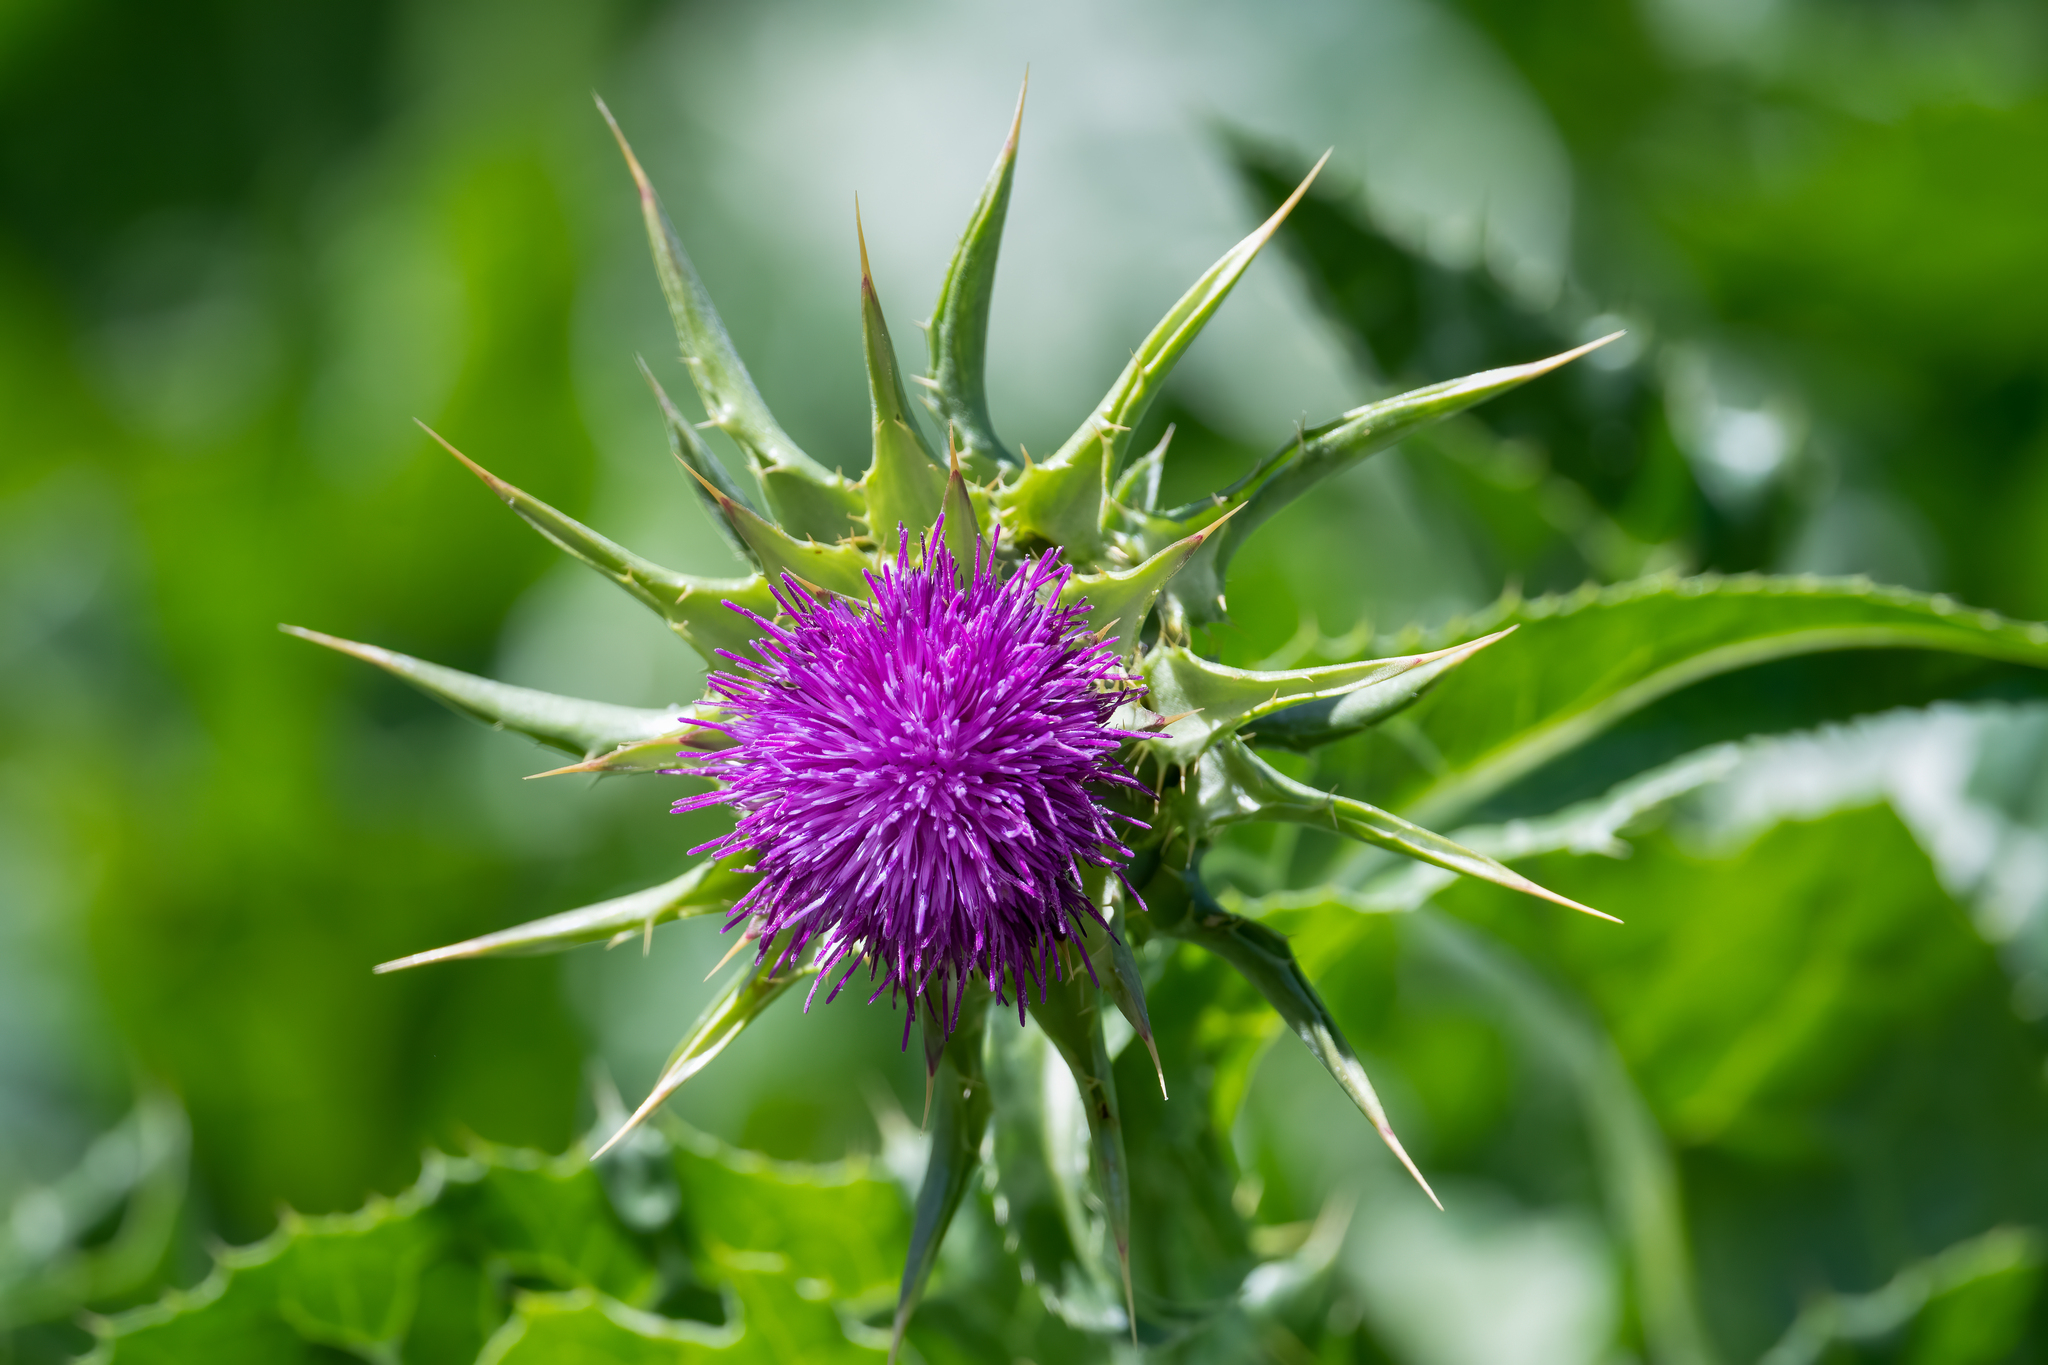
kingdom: Plantae
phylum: Tracheophyta
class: Magnoliopsida
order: Asterales
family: Asteraceae
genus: Silybum
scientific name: Silybum marianum
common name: Milk thistle
